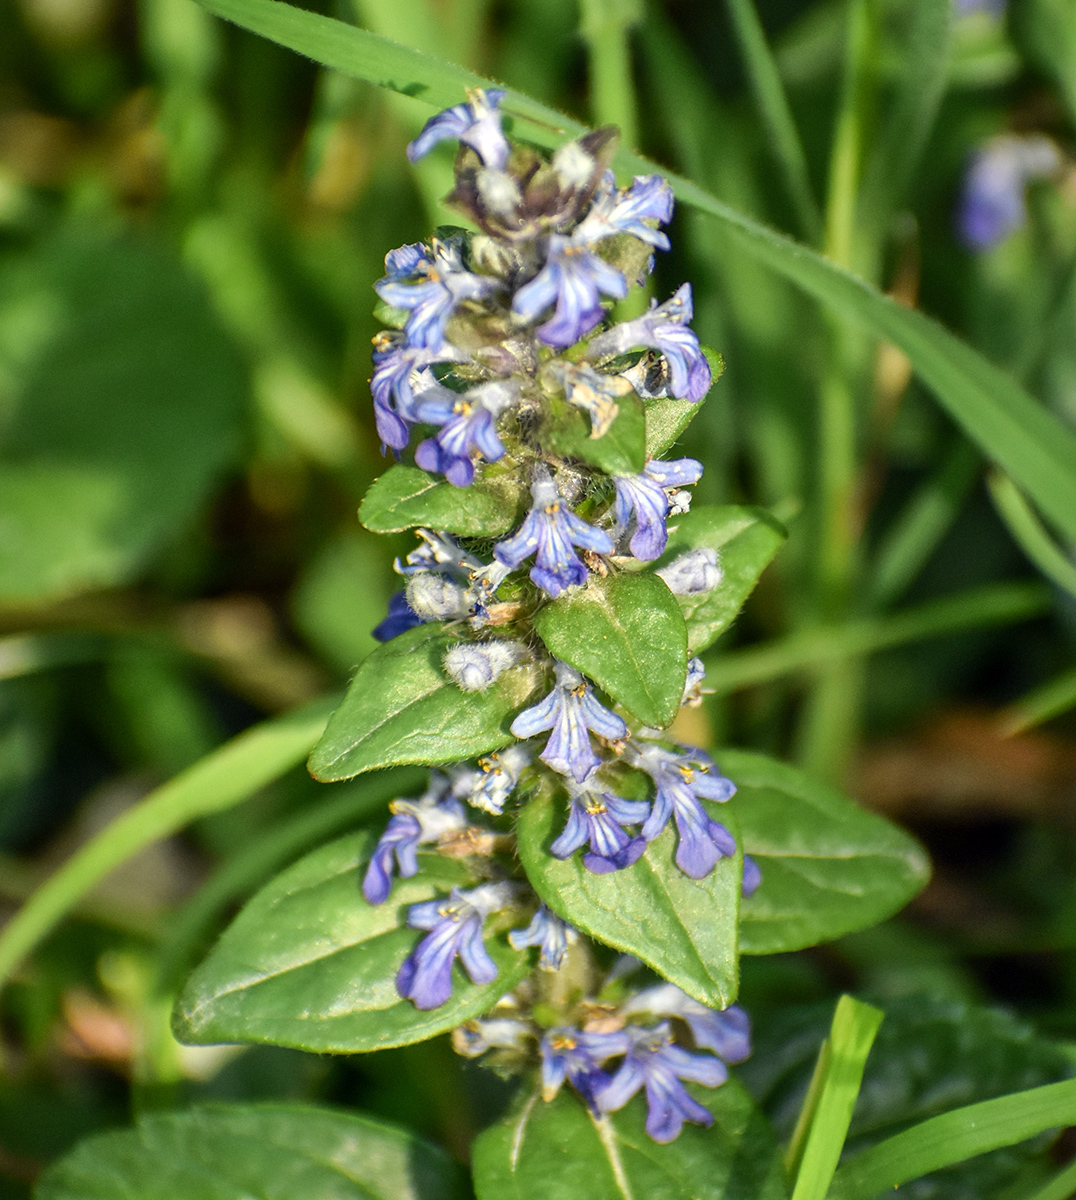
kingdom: Plantae
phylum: Tracheophyta
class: Magnoliopsida
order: Lamiales
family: Lamiaceae
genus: Ajuga
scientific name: Ajuga reptans
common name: Bugle
